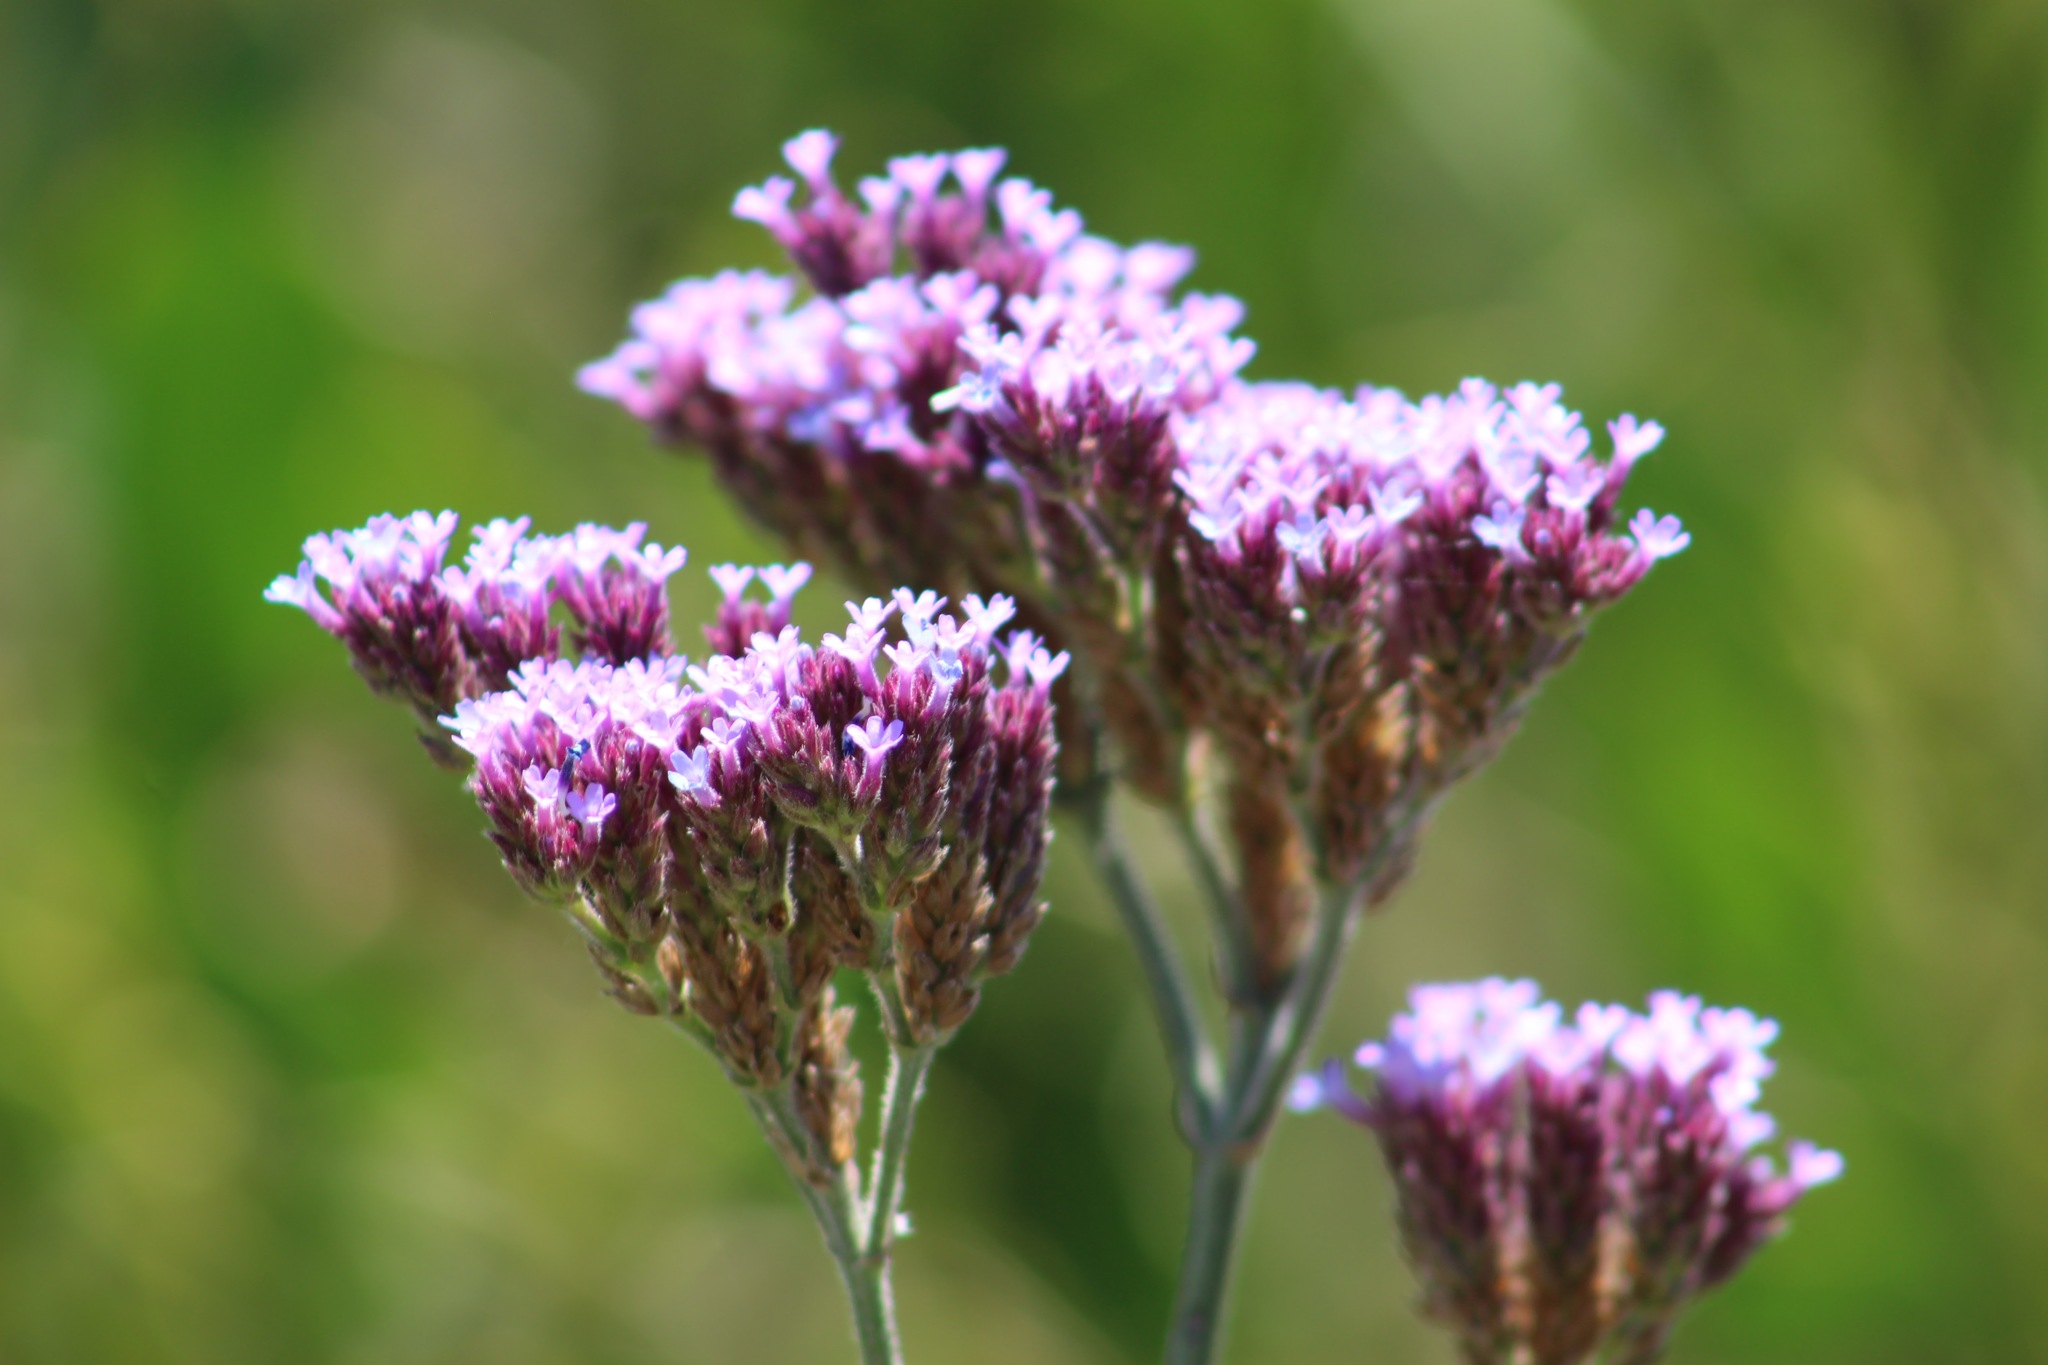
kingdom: Plantae
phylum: Tracheophyta
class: Magnoliopsida
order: Lamiales
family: Verbenaceae
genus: Verbena
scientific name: Verbena bonariensis
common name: Purpletop vervain
